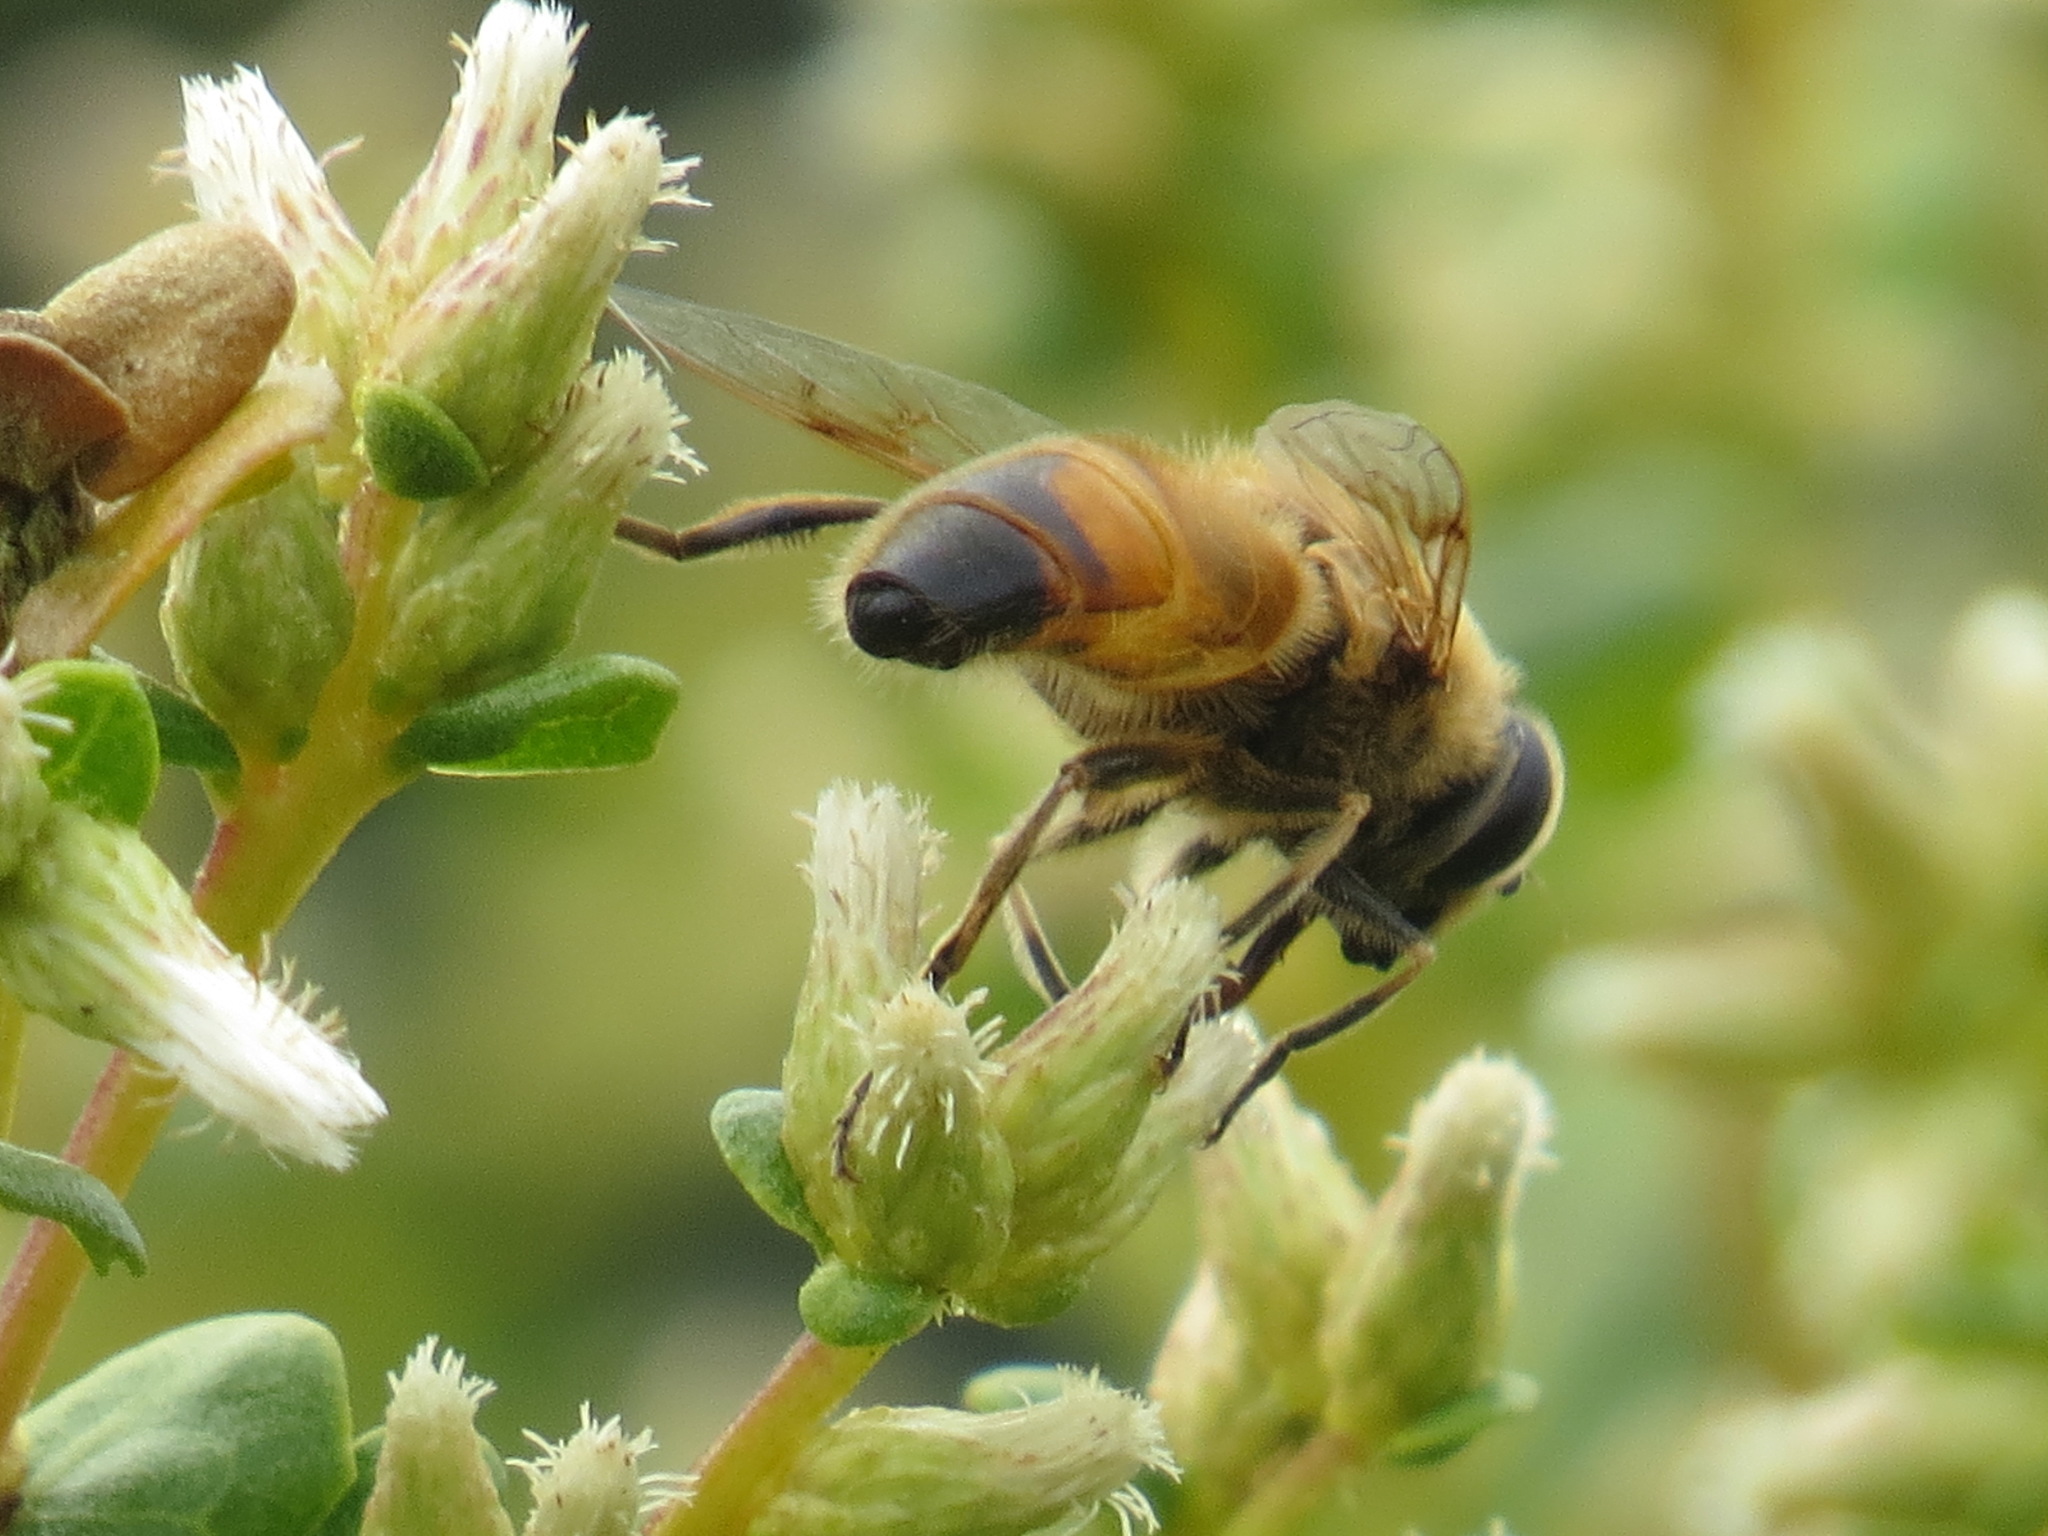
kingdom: Animalia
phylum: Arthropoda
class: Insecta
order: Diptera
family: Syrphidae
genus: Eristalis
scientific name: Eristalis tenax
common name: Drone fly
